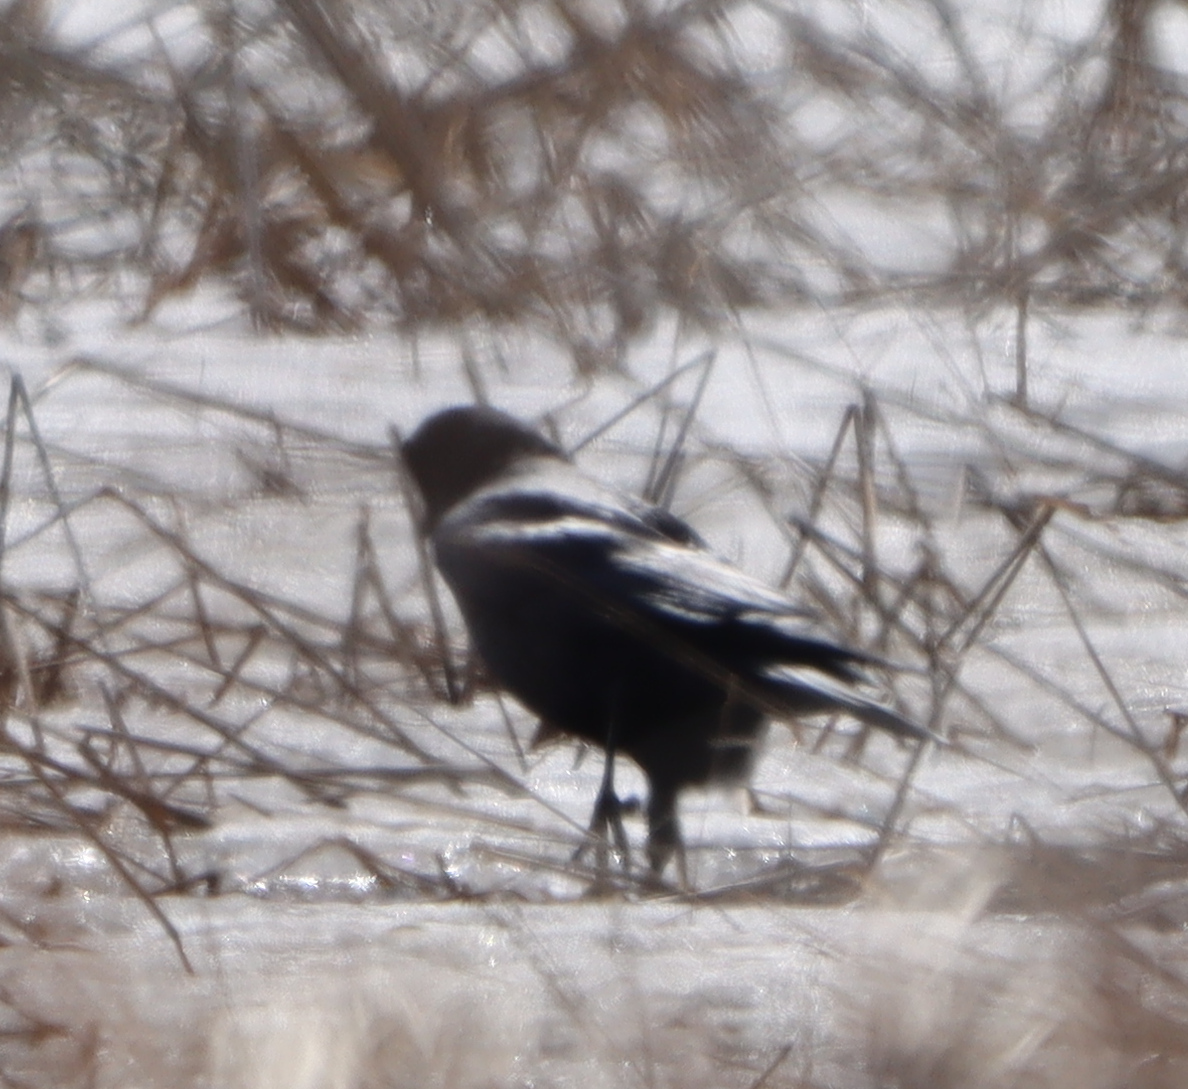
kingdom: Animalia
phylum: Chordata
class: Aves
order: Passeriformes
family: Corvidae
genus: Corvus
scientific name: Corvus brachyrhynchos
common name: American crow
